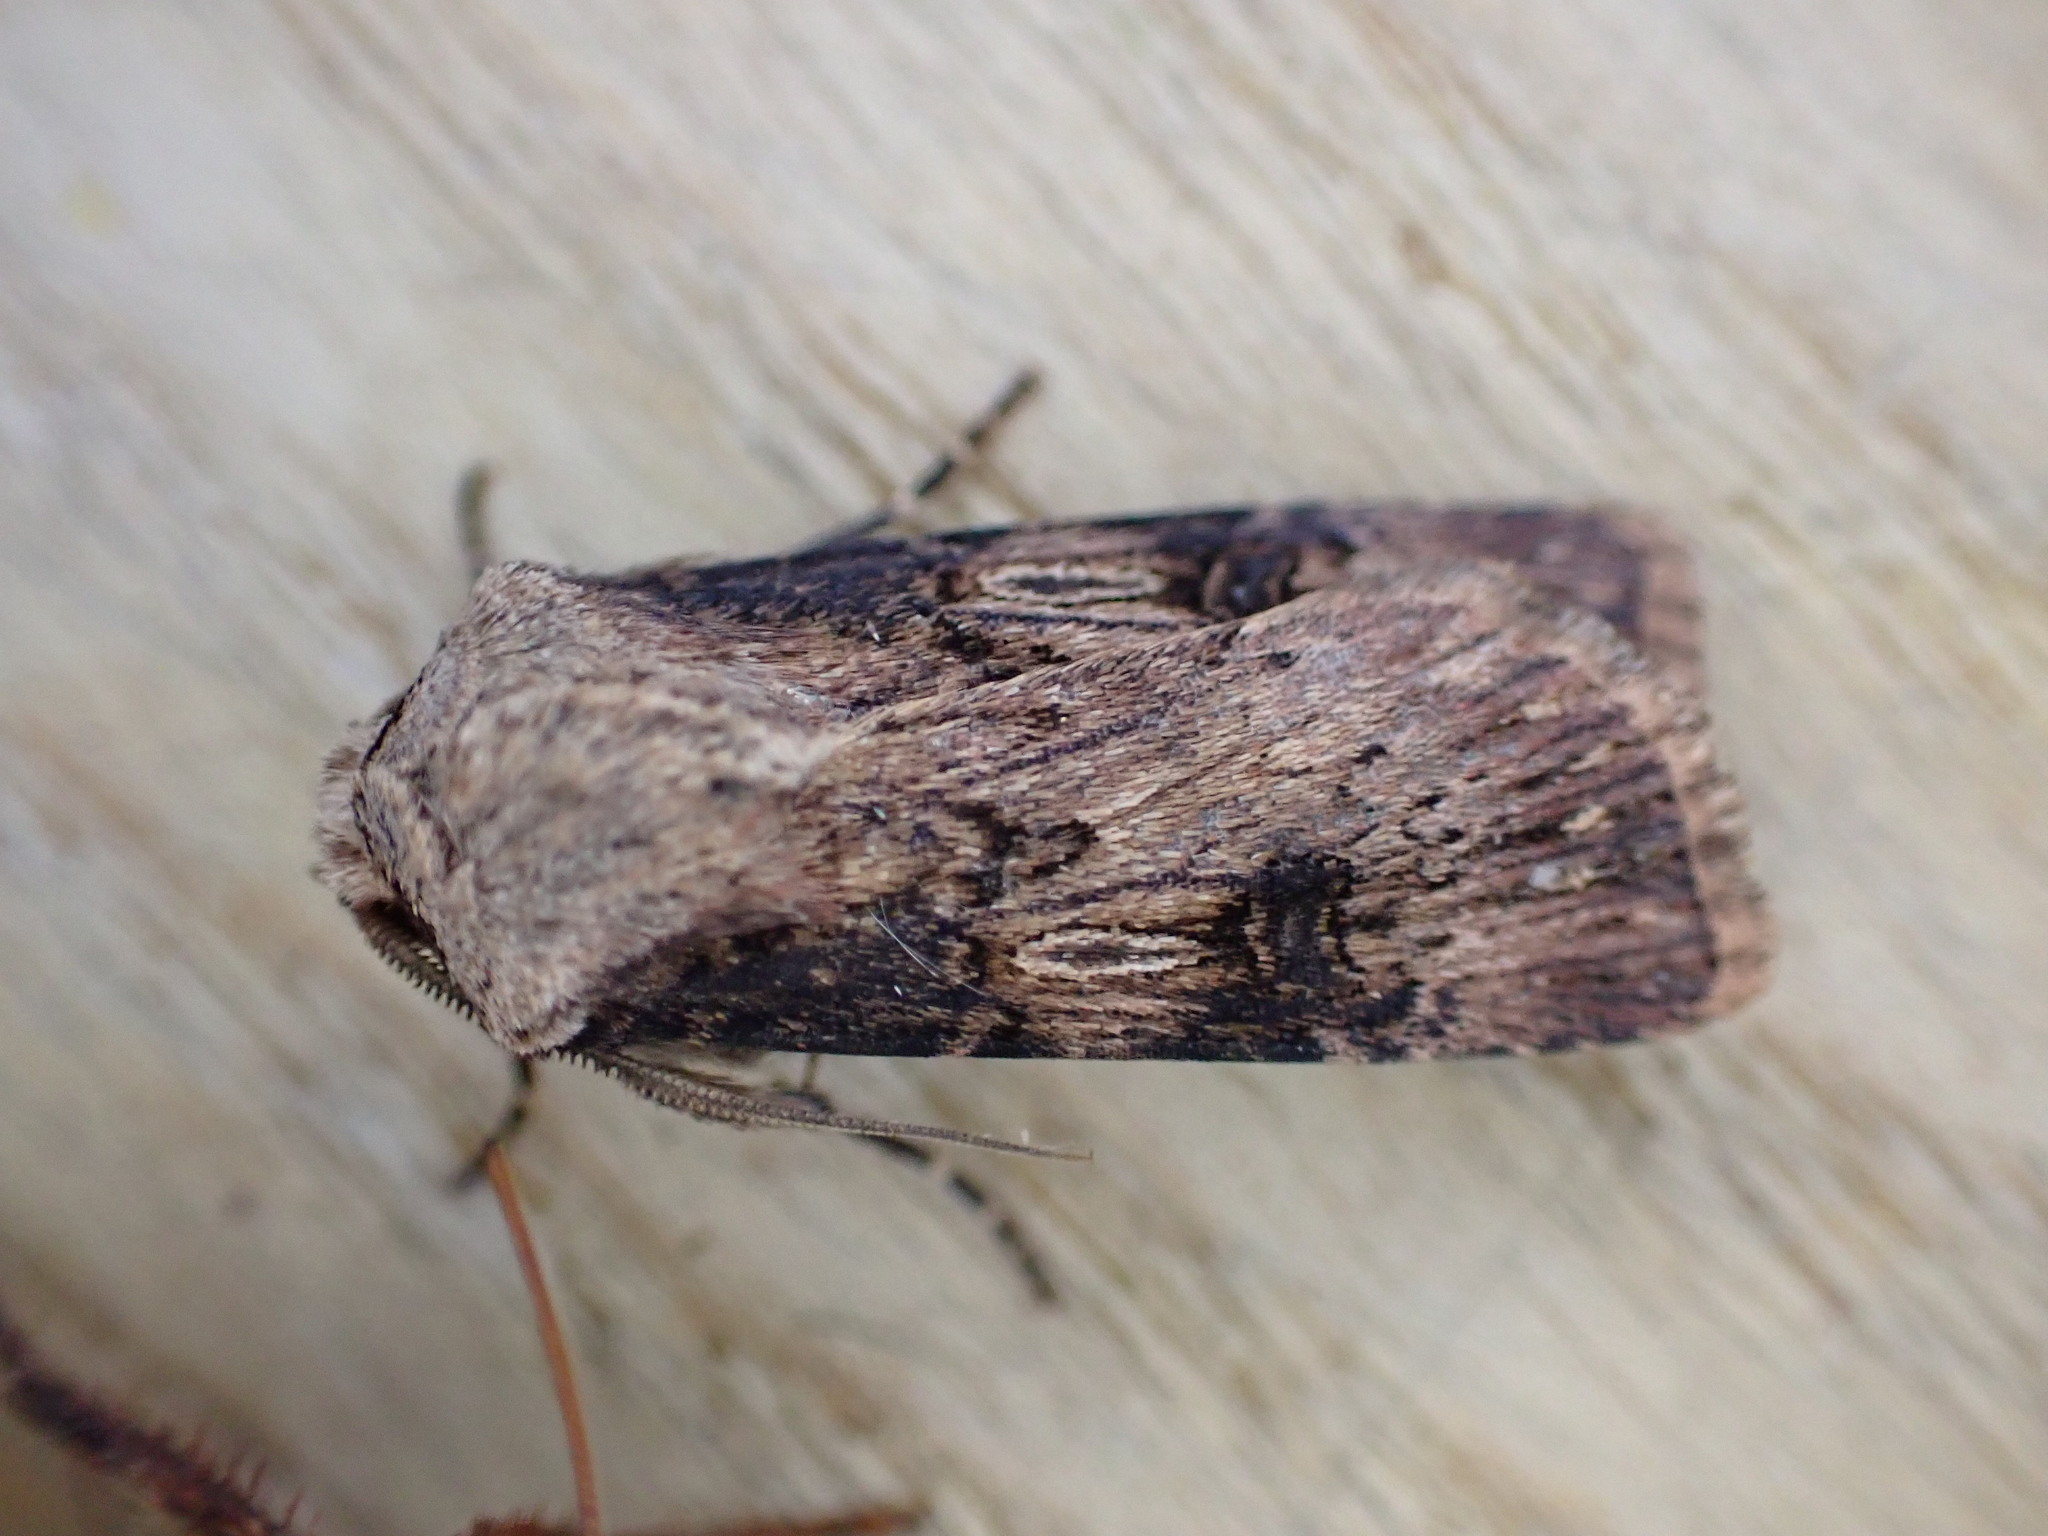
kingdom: Animalia
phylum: Arthropoda
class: Insecta
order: Lepidoptera
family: Noctuidae
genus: Agrotis
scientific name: Agrotis puta
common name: Shuttle-shaped dart
